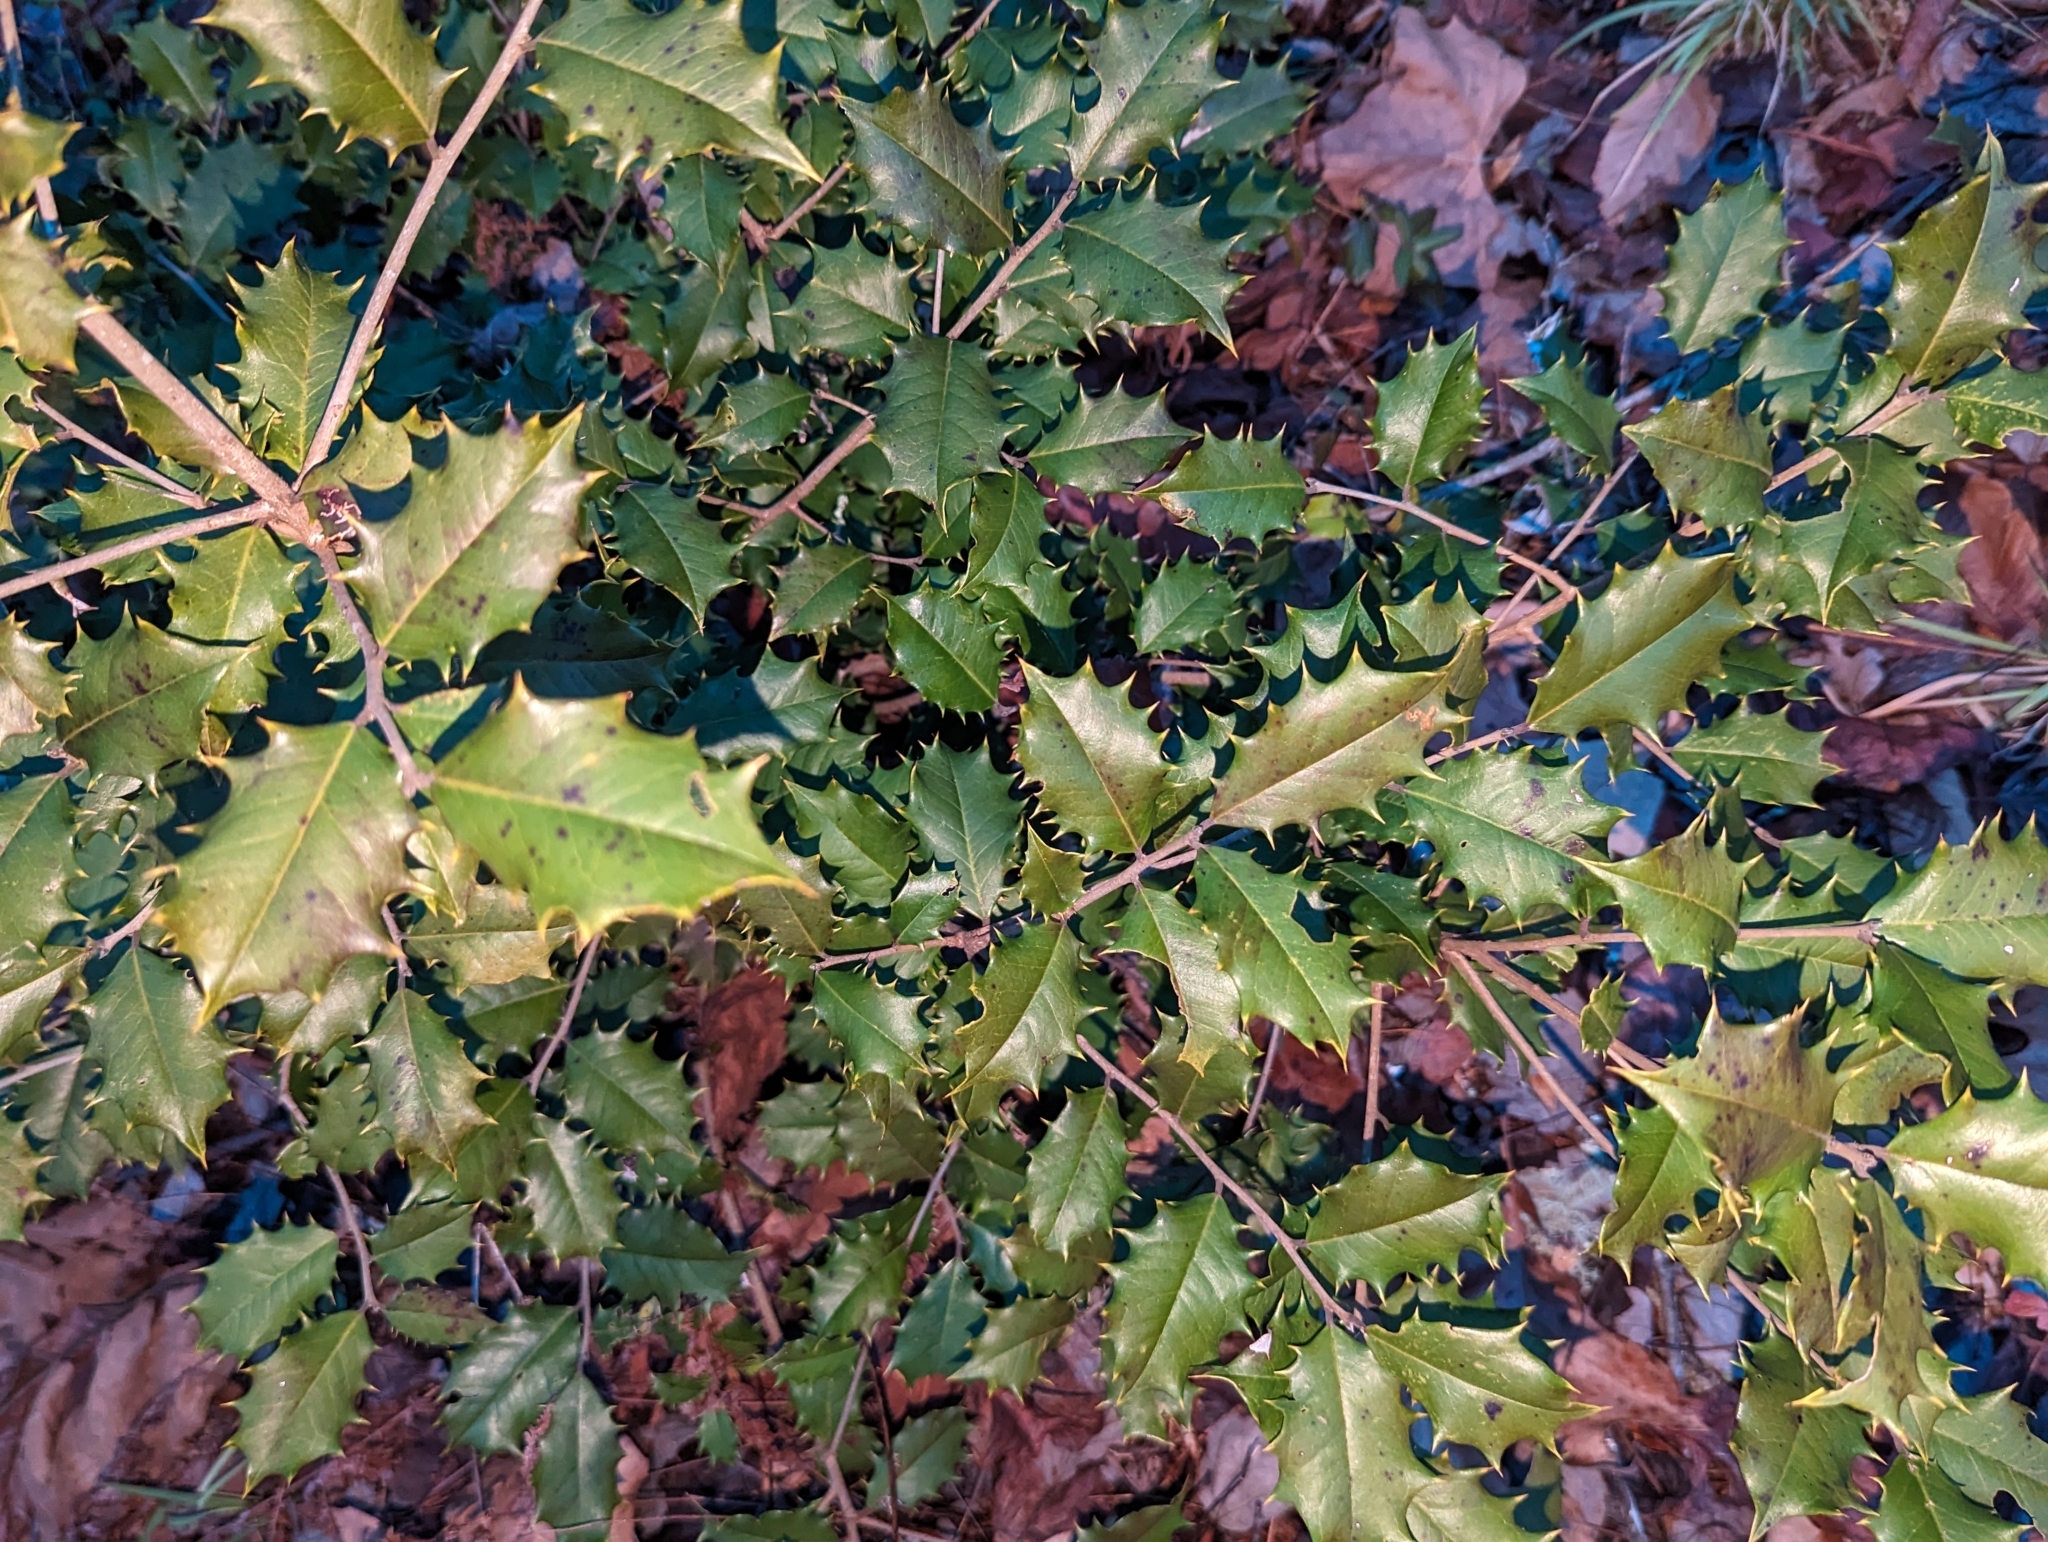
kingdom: Plantae
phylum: Tracheophyta
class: Magnoliopsida
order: Aquifoliales
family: Aquifoliaceae
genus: Ilex
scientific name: Ilex opaca
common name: American holly
